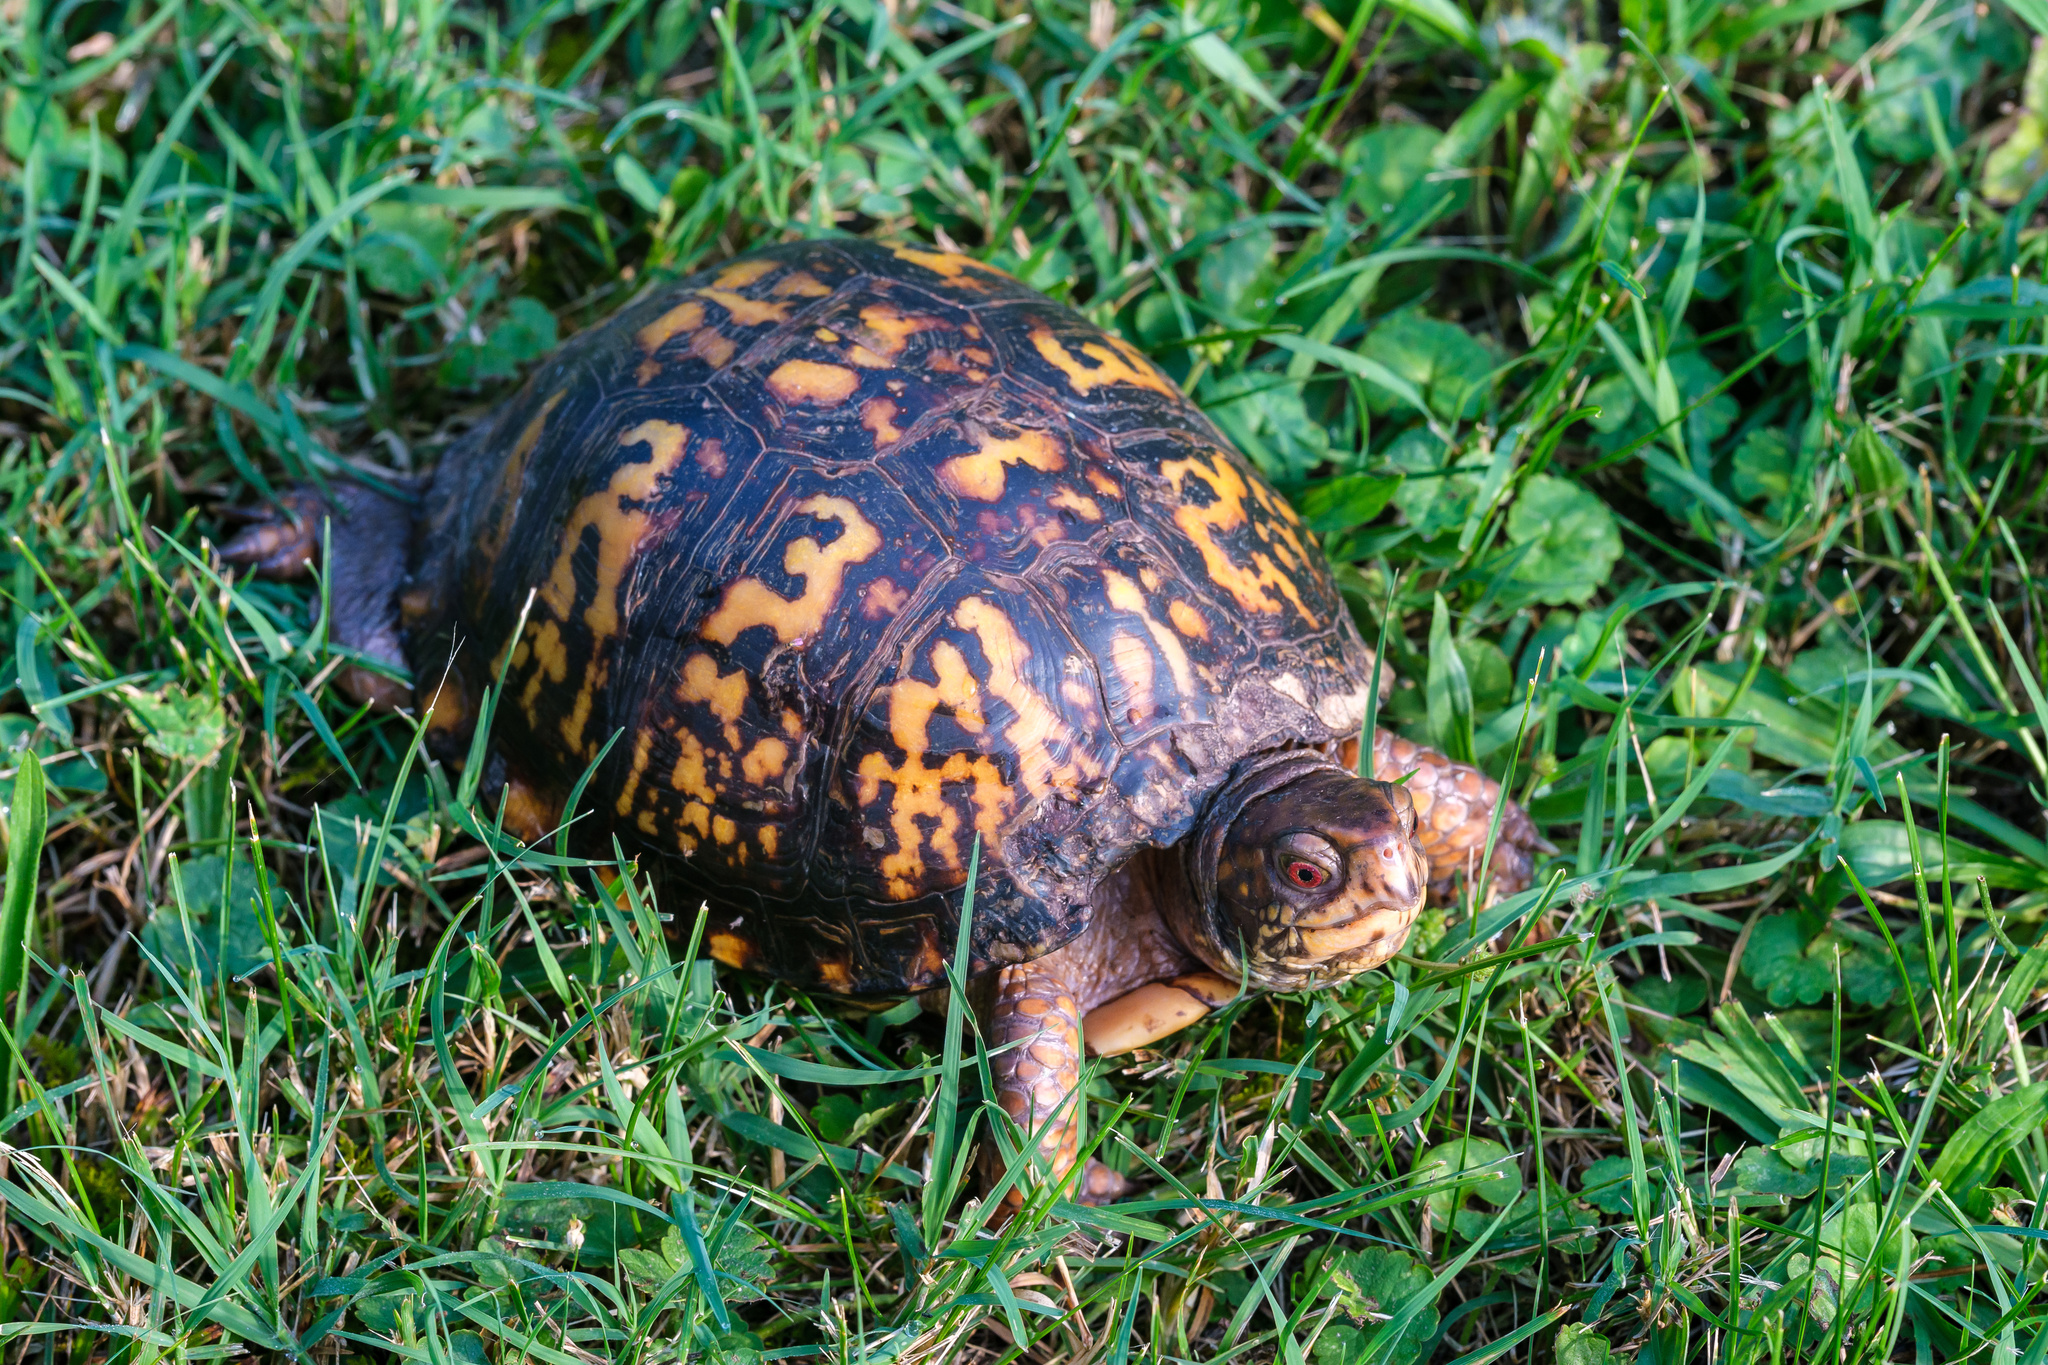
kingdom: Animalia
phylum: Chordata
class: Testudines
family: Emydidae
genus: Terrapene
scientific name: Terrapene carolina
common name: Common box turtle
